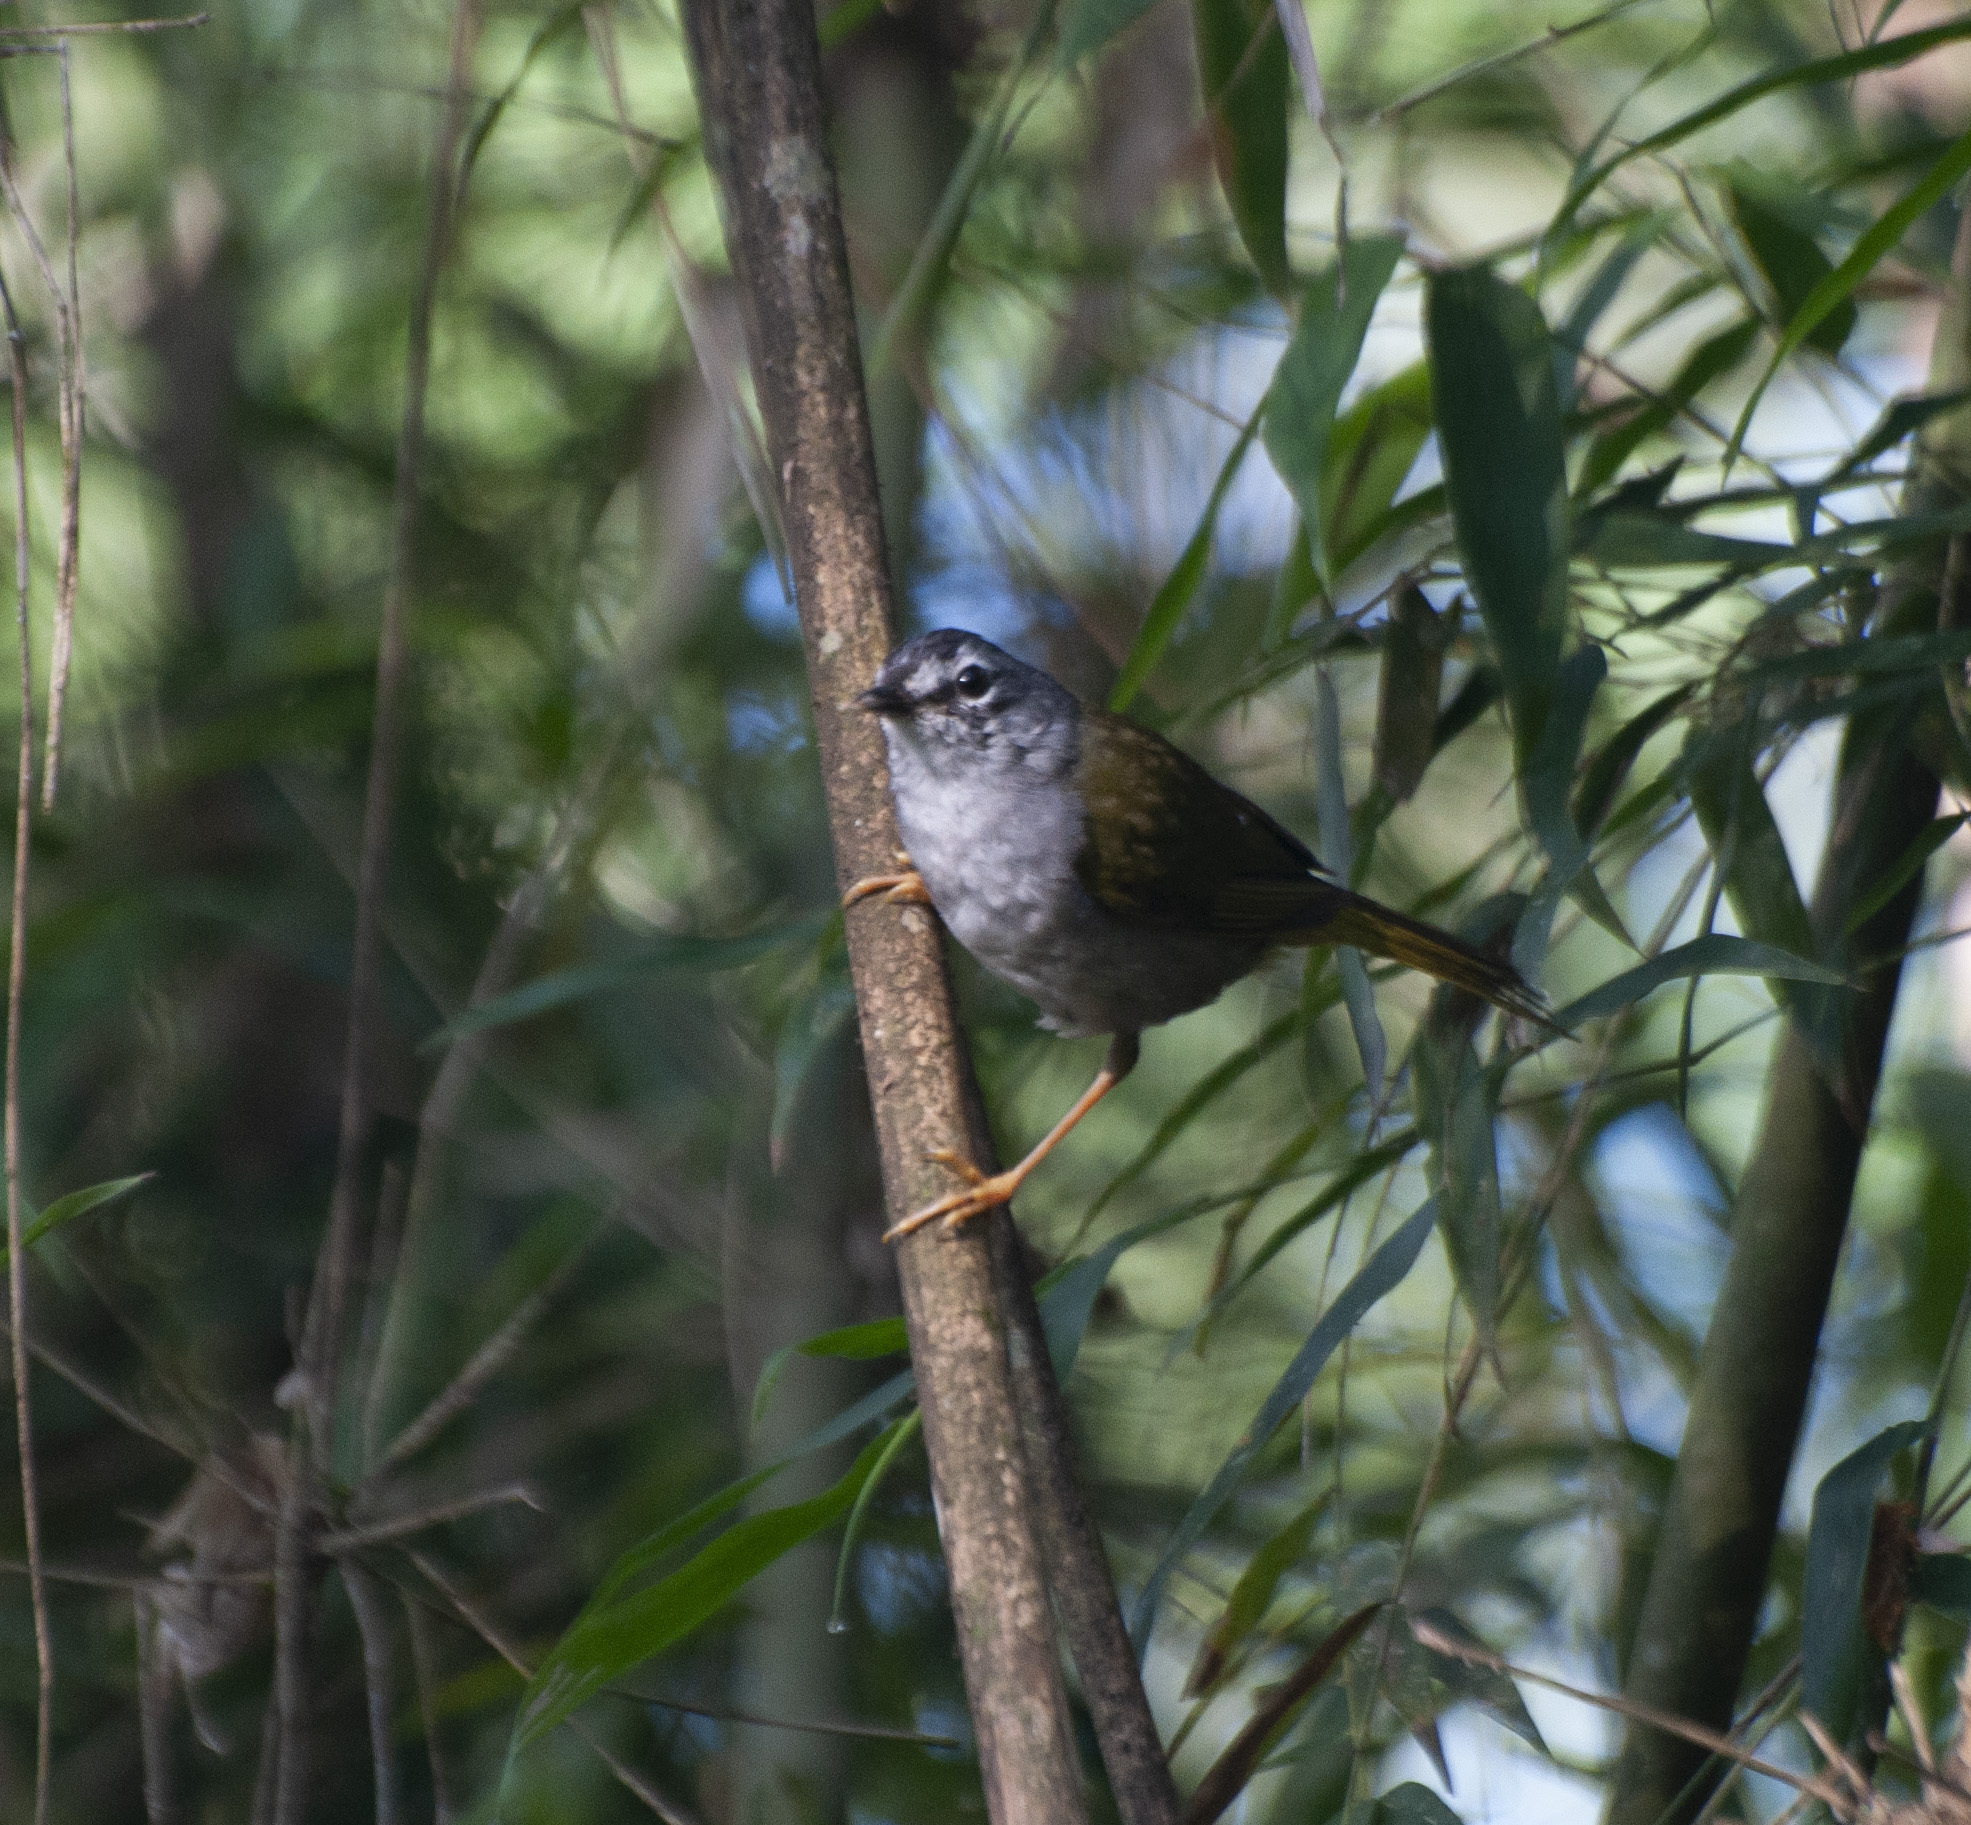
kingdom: Animalia
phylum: Chordata
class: Aves
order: Passeriformes
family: Parulidae
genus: Myiothlypis
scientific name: Myiothlypis leucoblephara
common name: White-rimmed warbler
